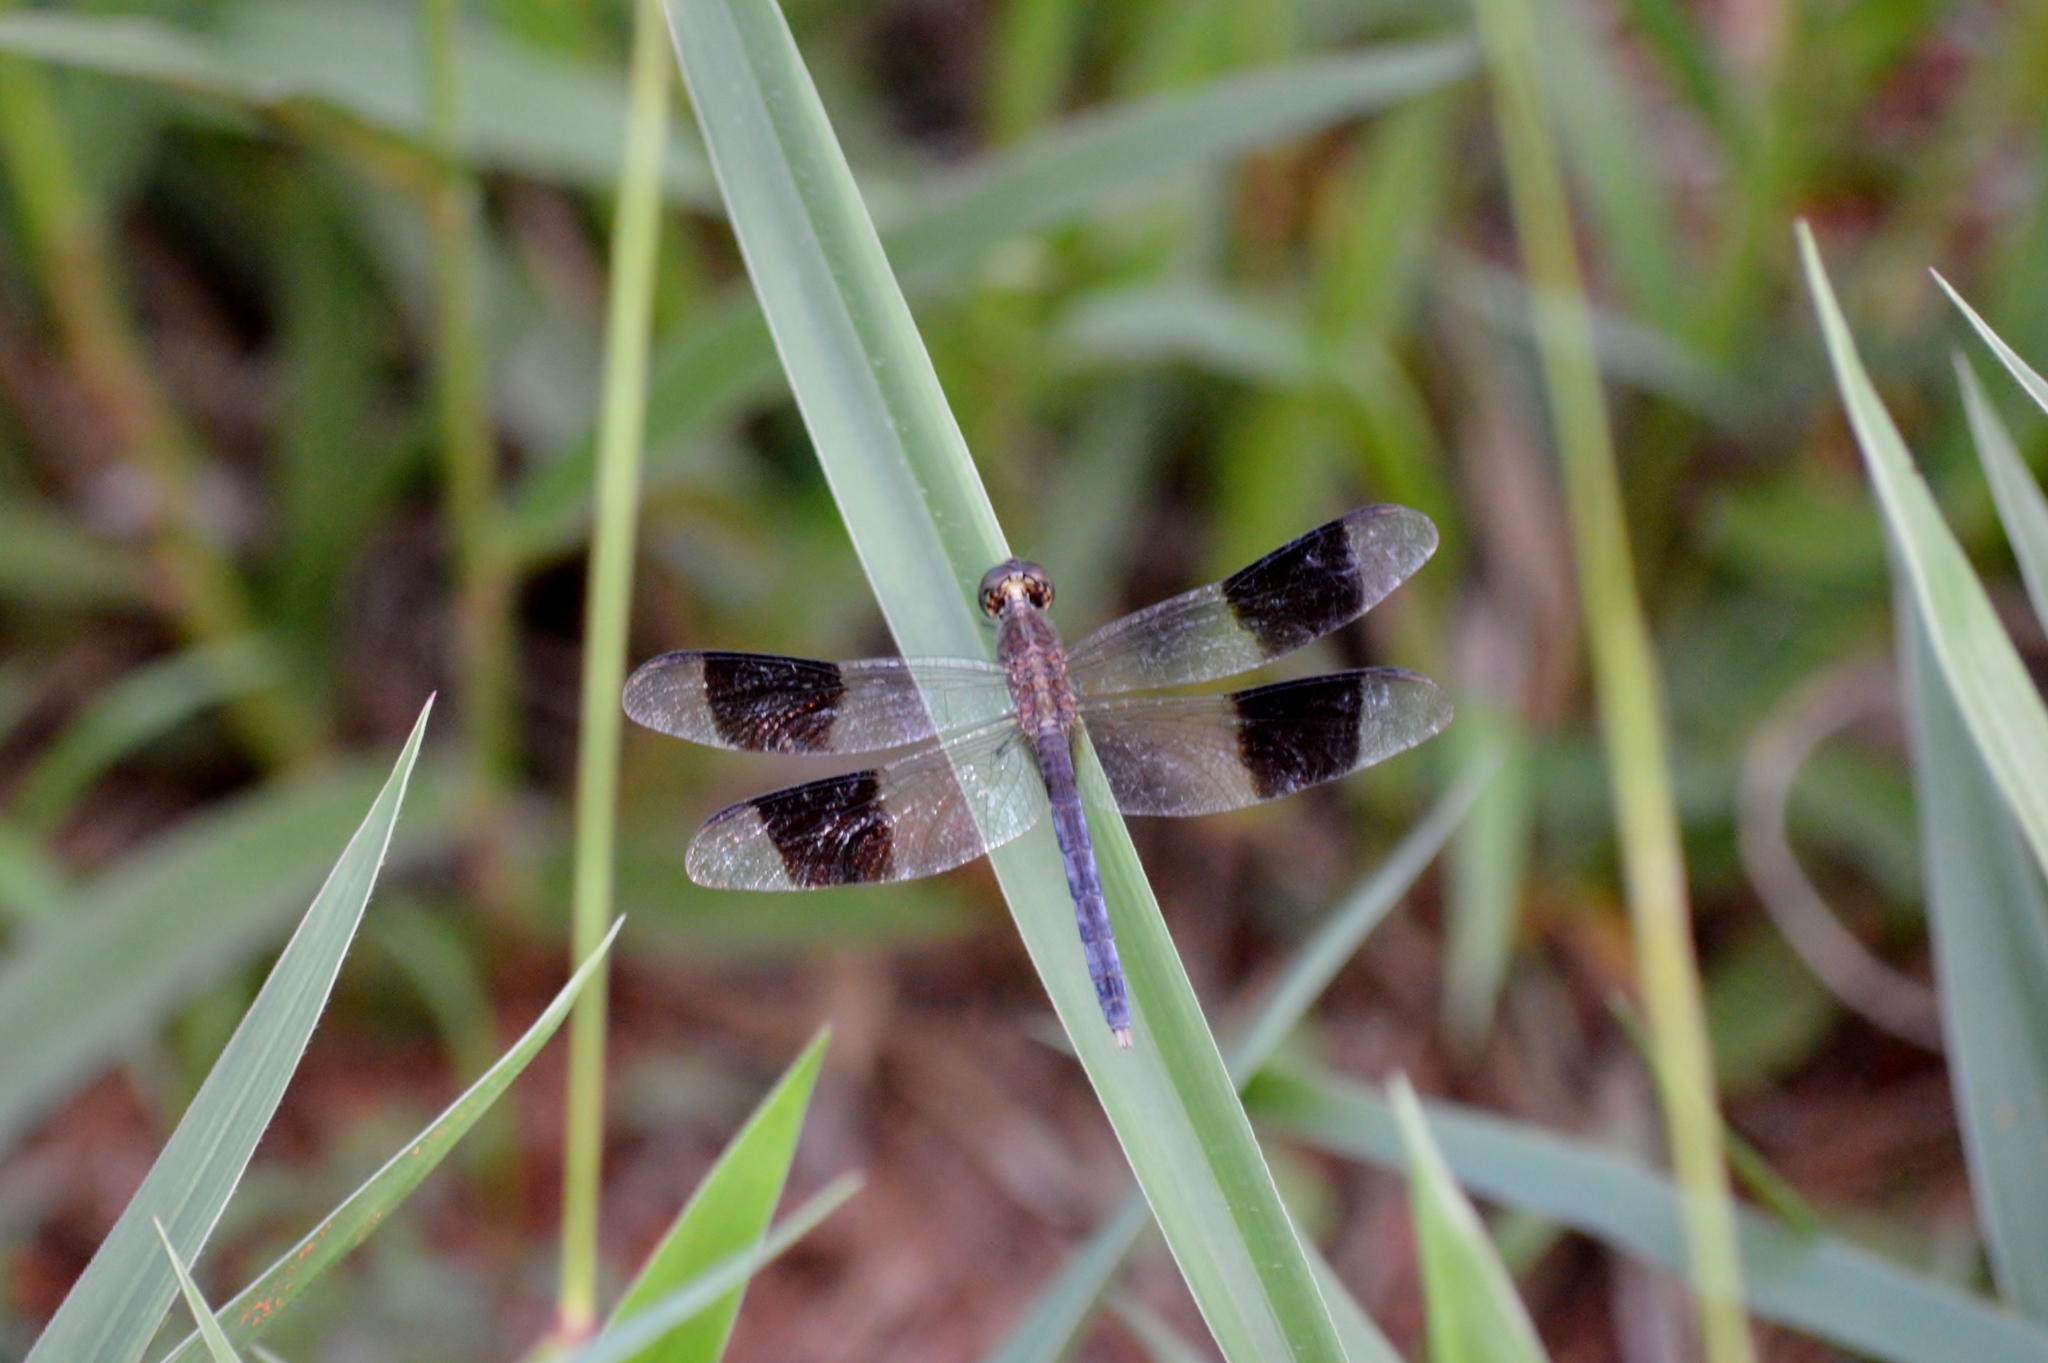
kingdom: Animalia
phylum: Arthropoda
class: Insecta
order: Odonata
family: Libellulidae
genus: Erythrodiplax
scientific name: Erythrodiplax umbrata
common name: Band-winged dragonlet
